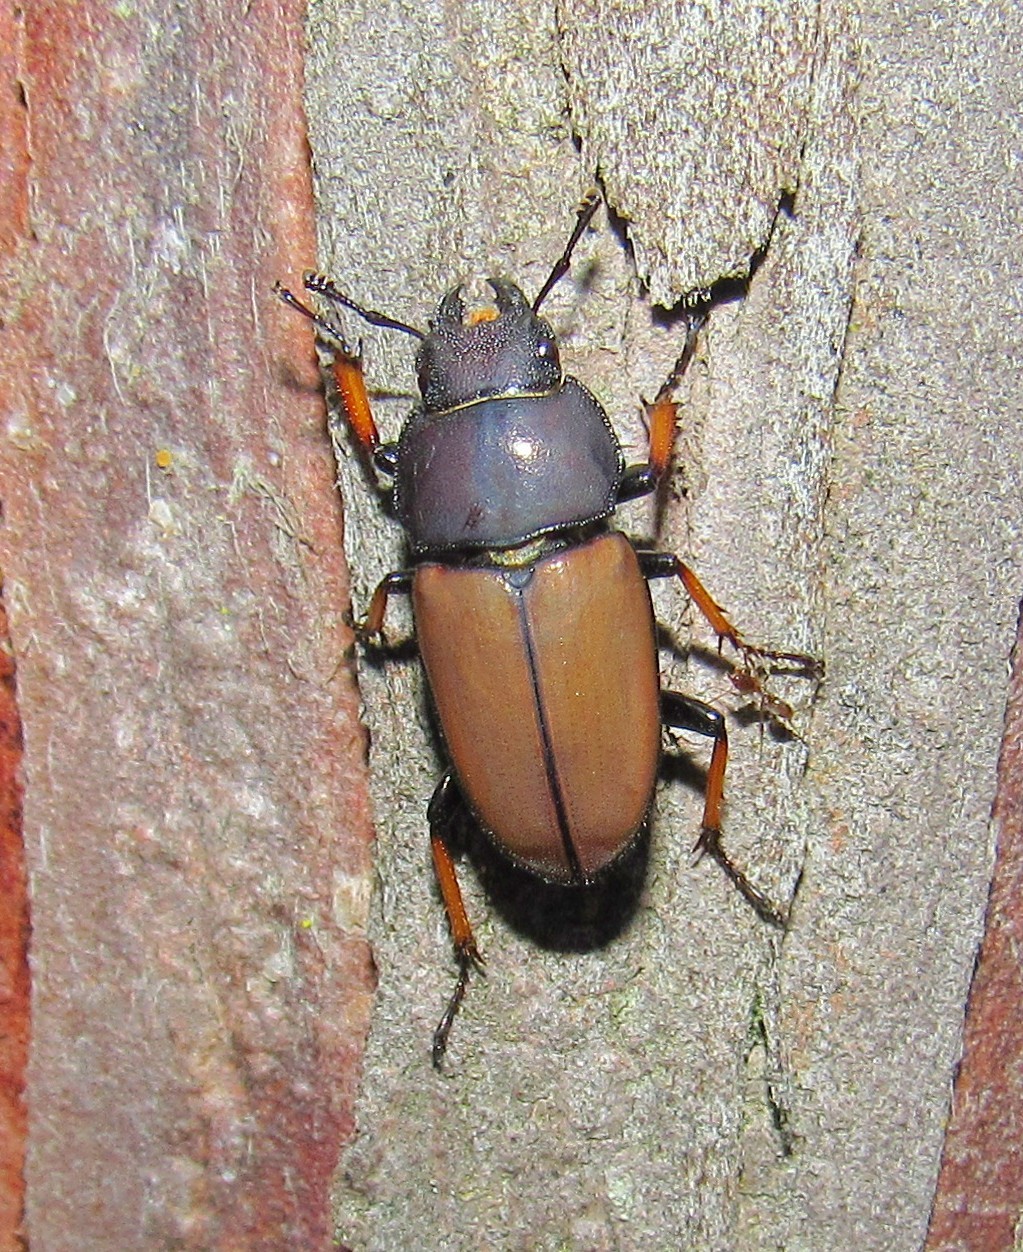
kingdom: Animalia
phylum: Arthropoda
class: Insecta
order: Coleoptera
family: Lucanidae
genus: Leptinopterus
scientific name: Leptinopterus tibialis
